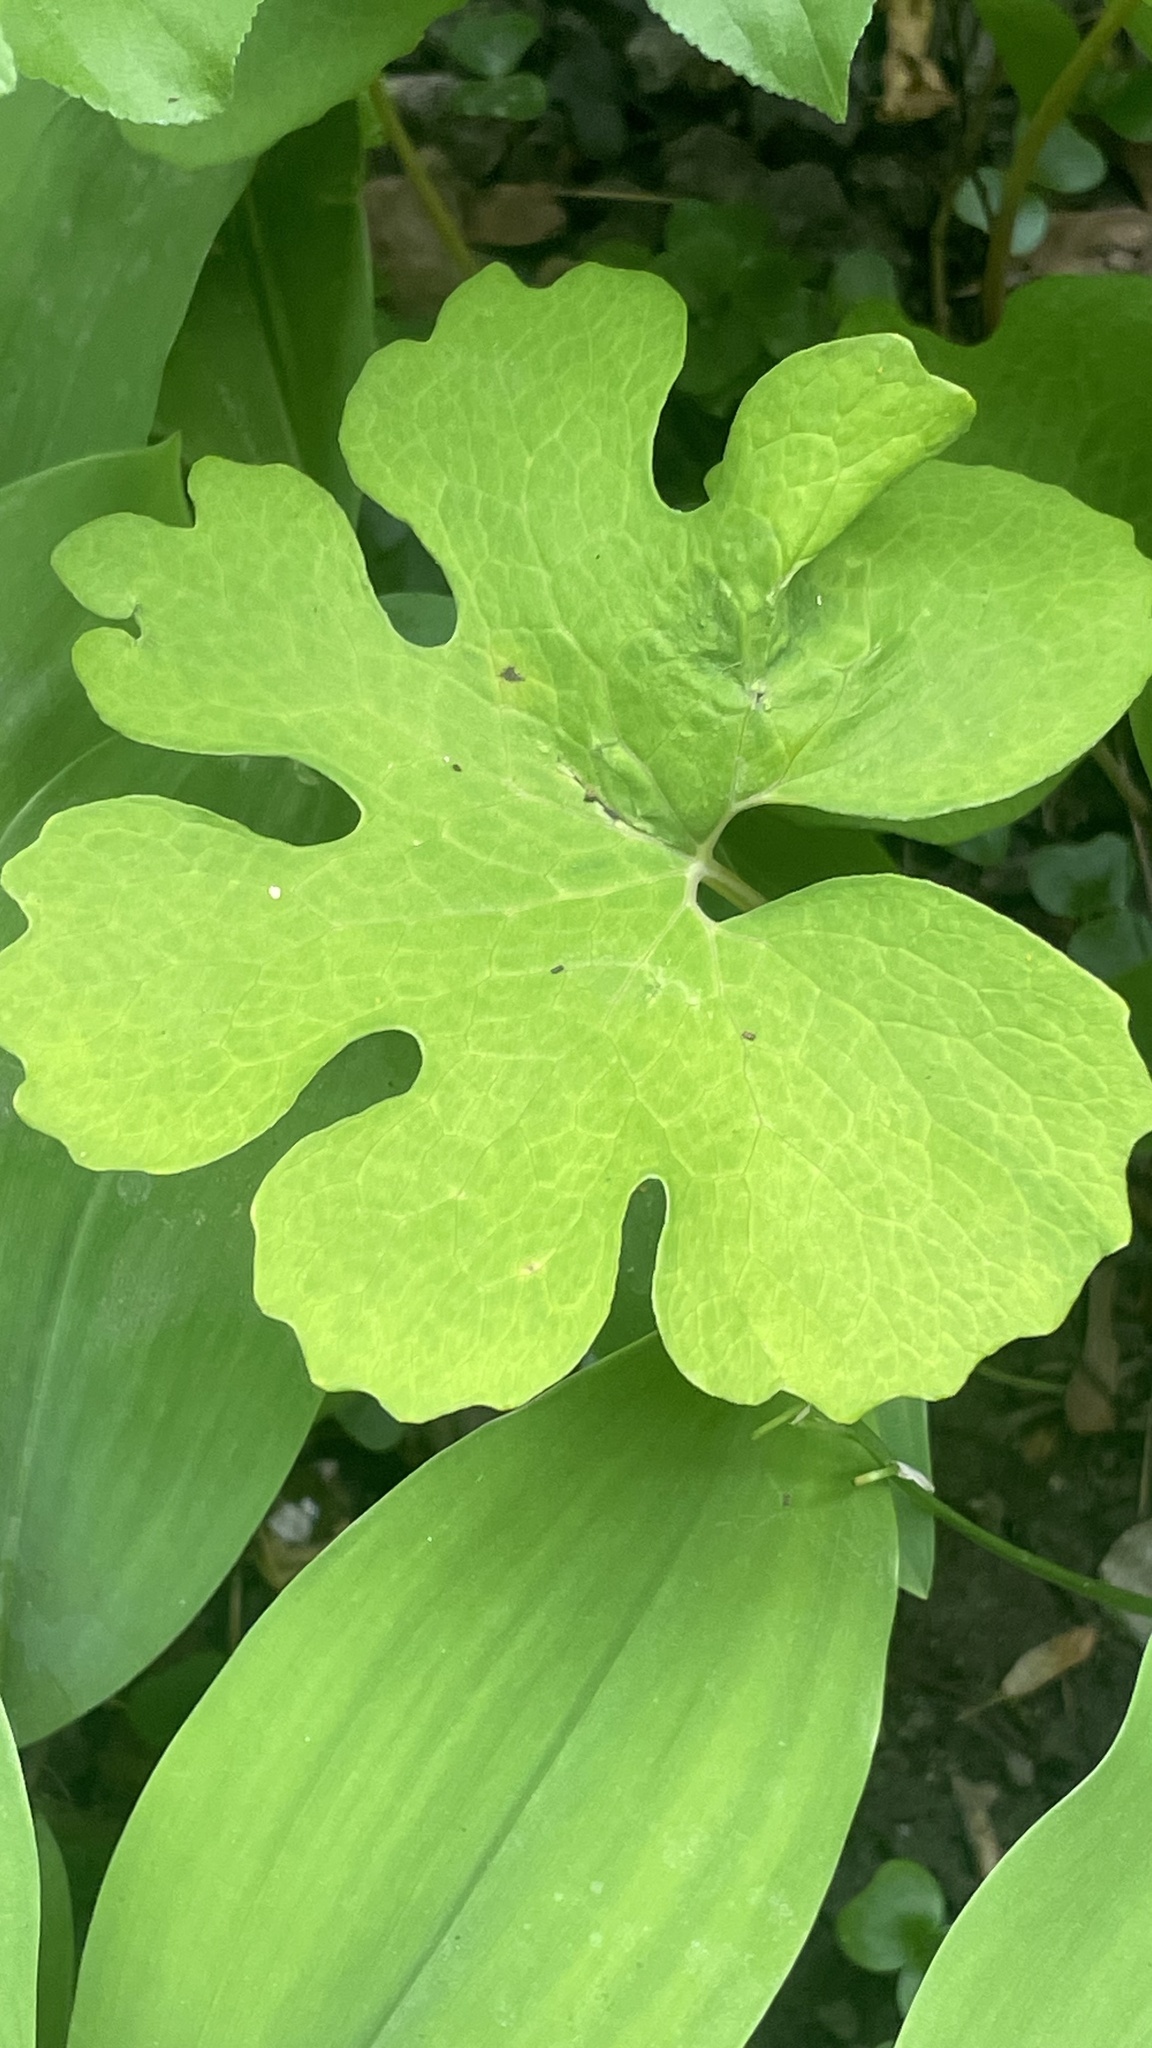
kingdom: Plantae
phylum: Tracheophyta
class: Magnoliopsida
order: Ranunculales
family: Papaveraceae
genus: Sanguinaria
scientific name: Sanguinaria canadensis
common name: Bloodroot
